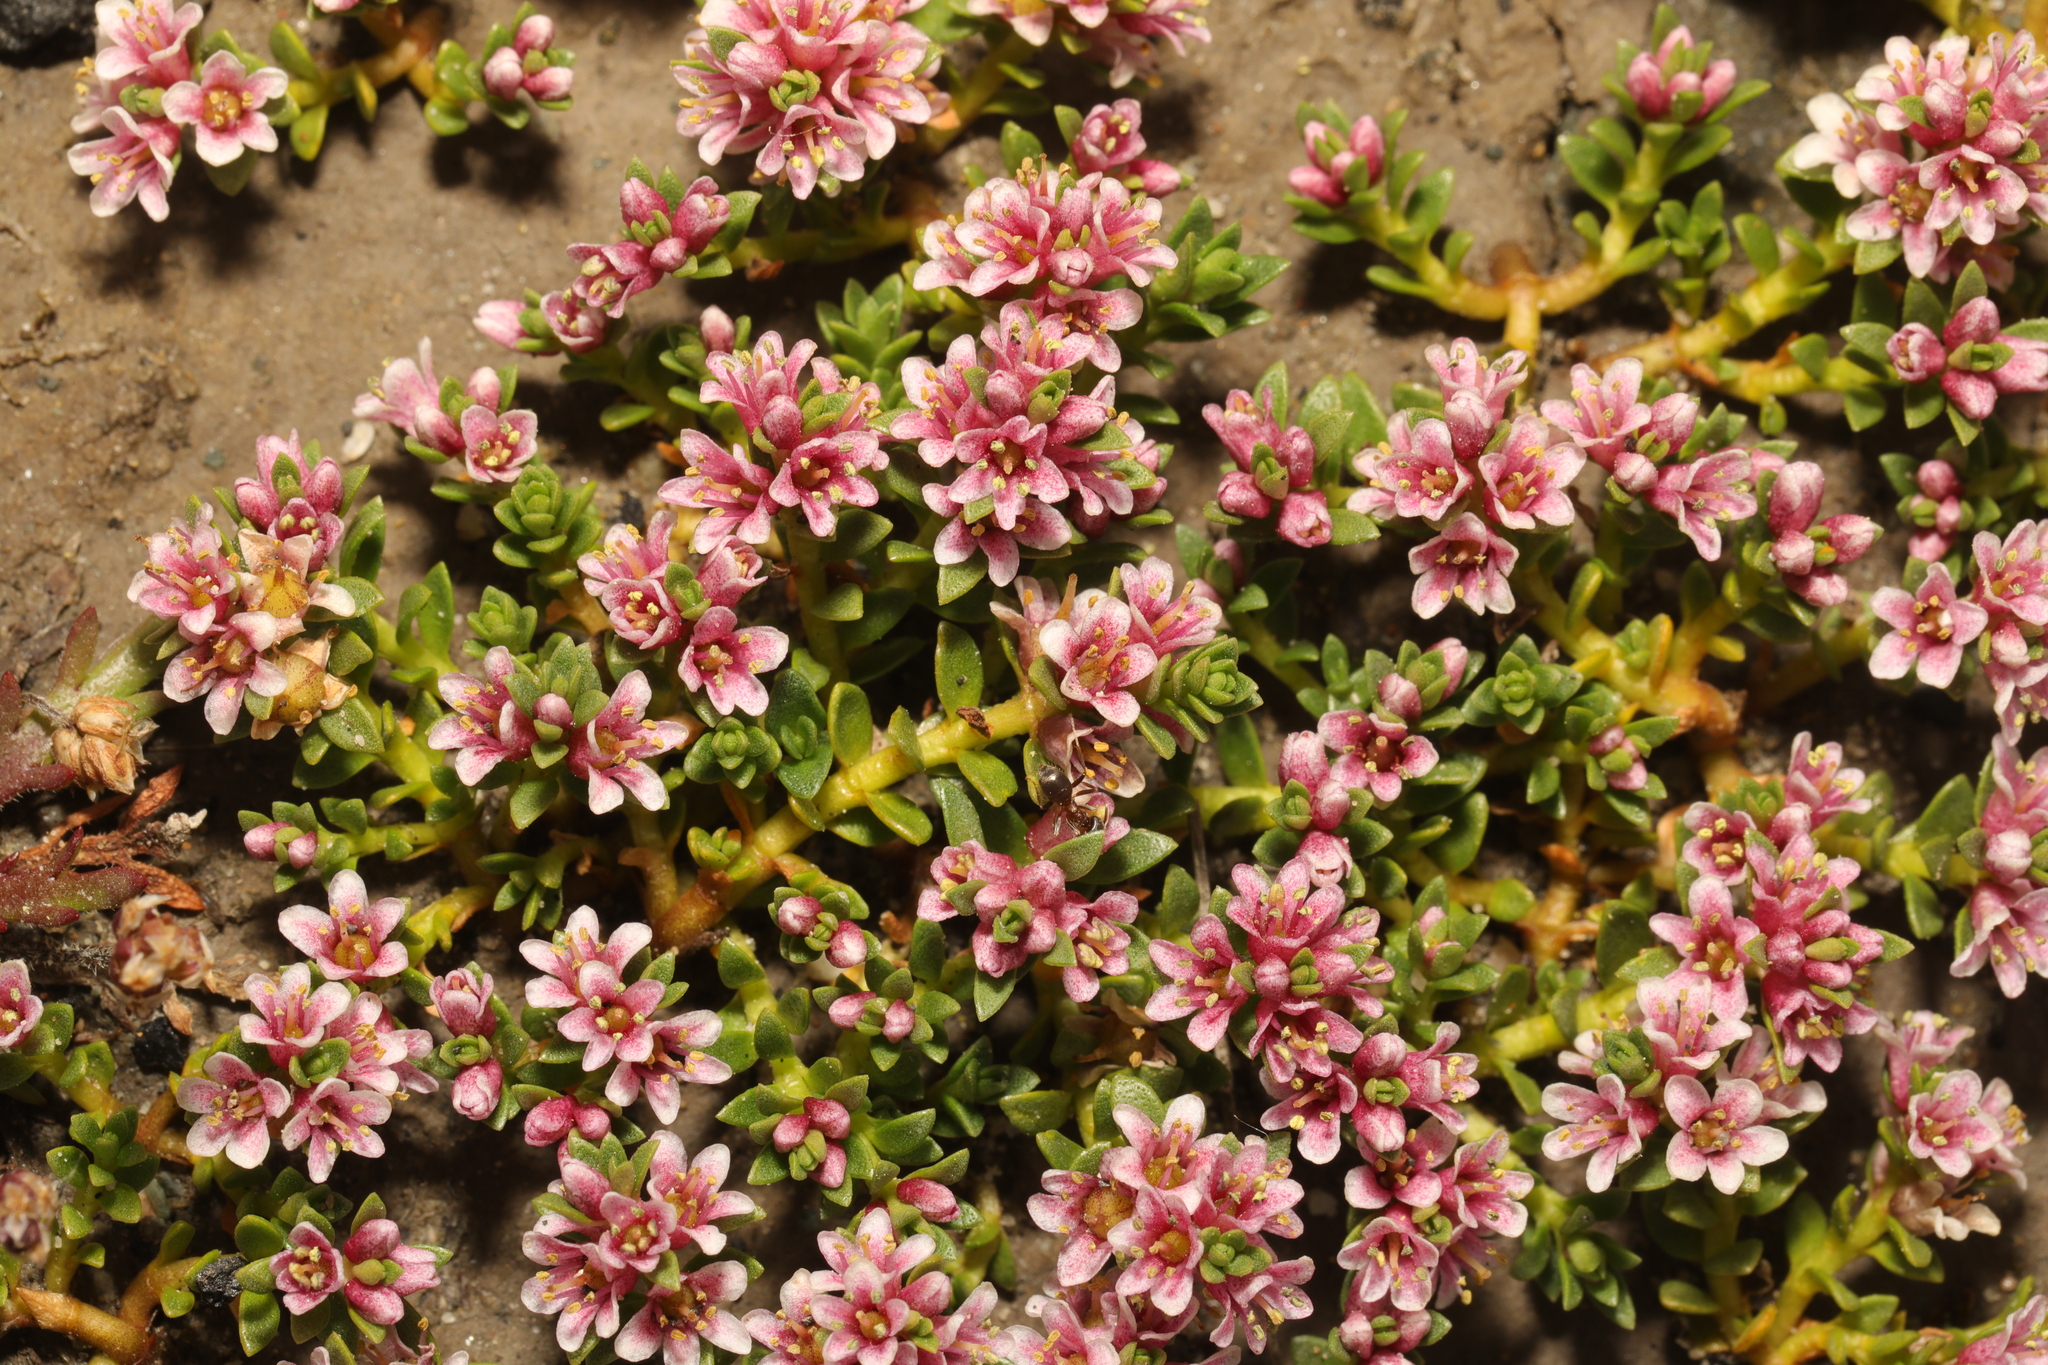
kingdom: Plantae
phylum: Tracheophyta
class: Magnoliopsida
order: Ericales
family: Primulaceae
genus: Lysimachia
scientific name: Lysimachia maritima
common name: Sea milkwort
